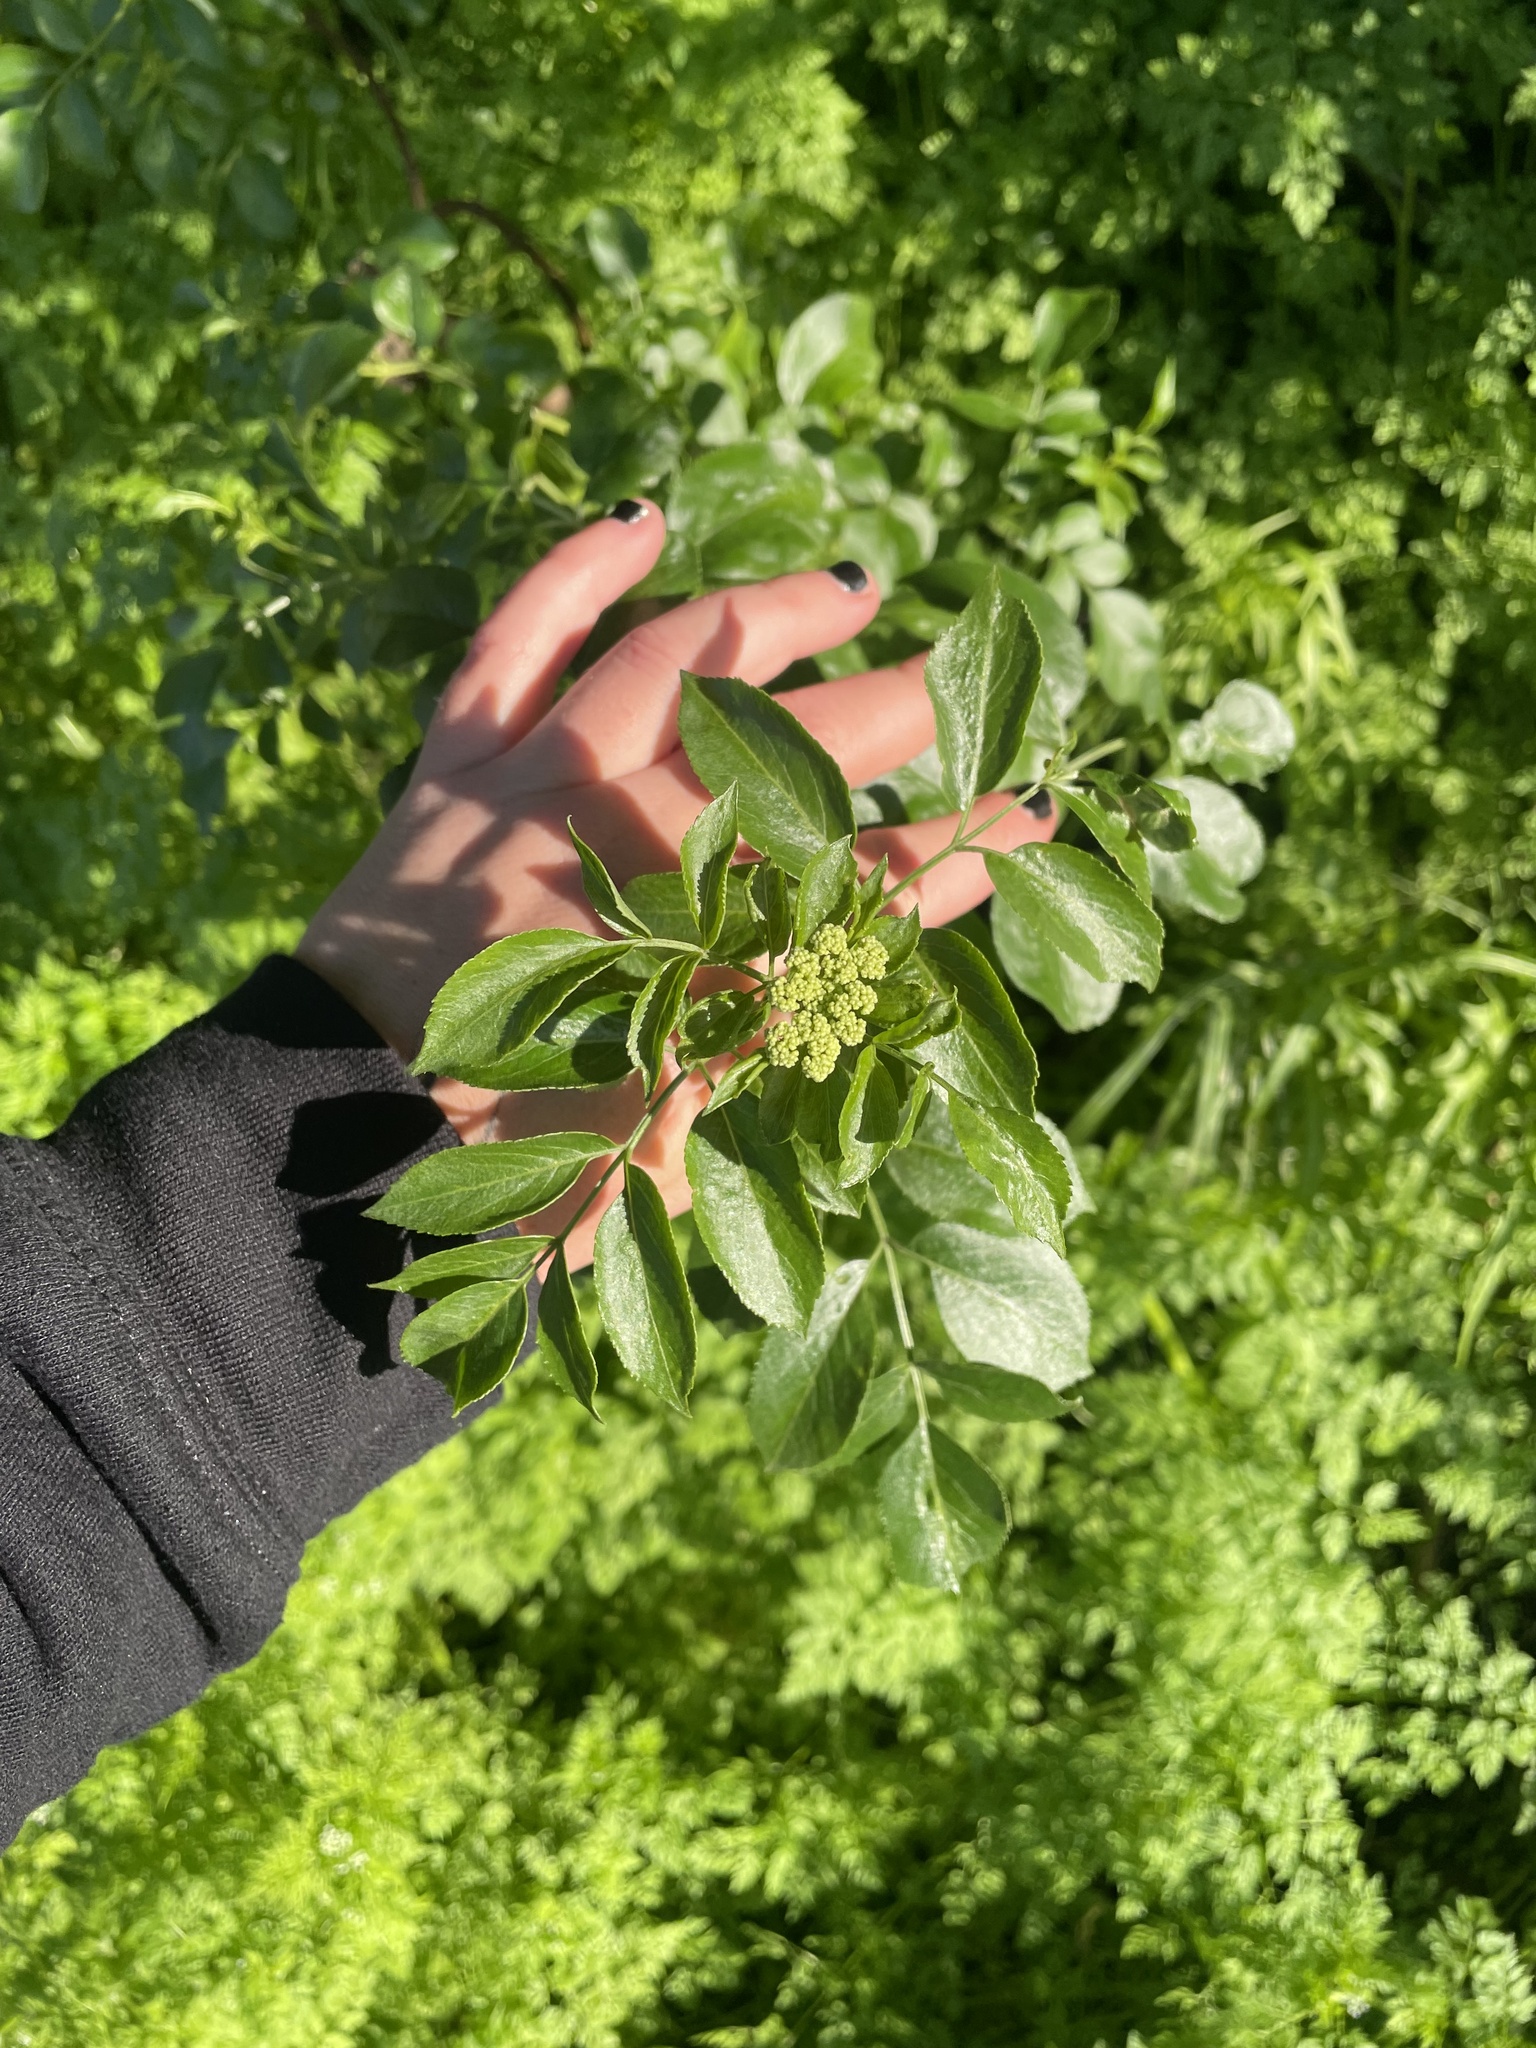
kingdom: Plantae
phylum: Tracheophyta
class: Magnoliopsida
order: Dipsacales
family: Viburnaceae
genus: Sambucus
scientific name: Sambucus cerulea
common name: Blue elder
